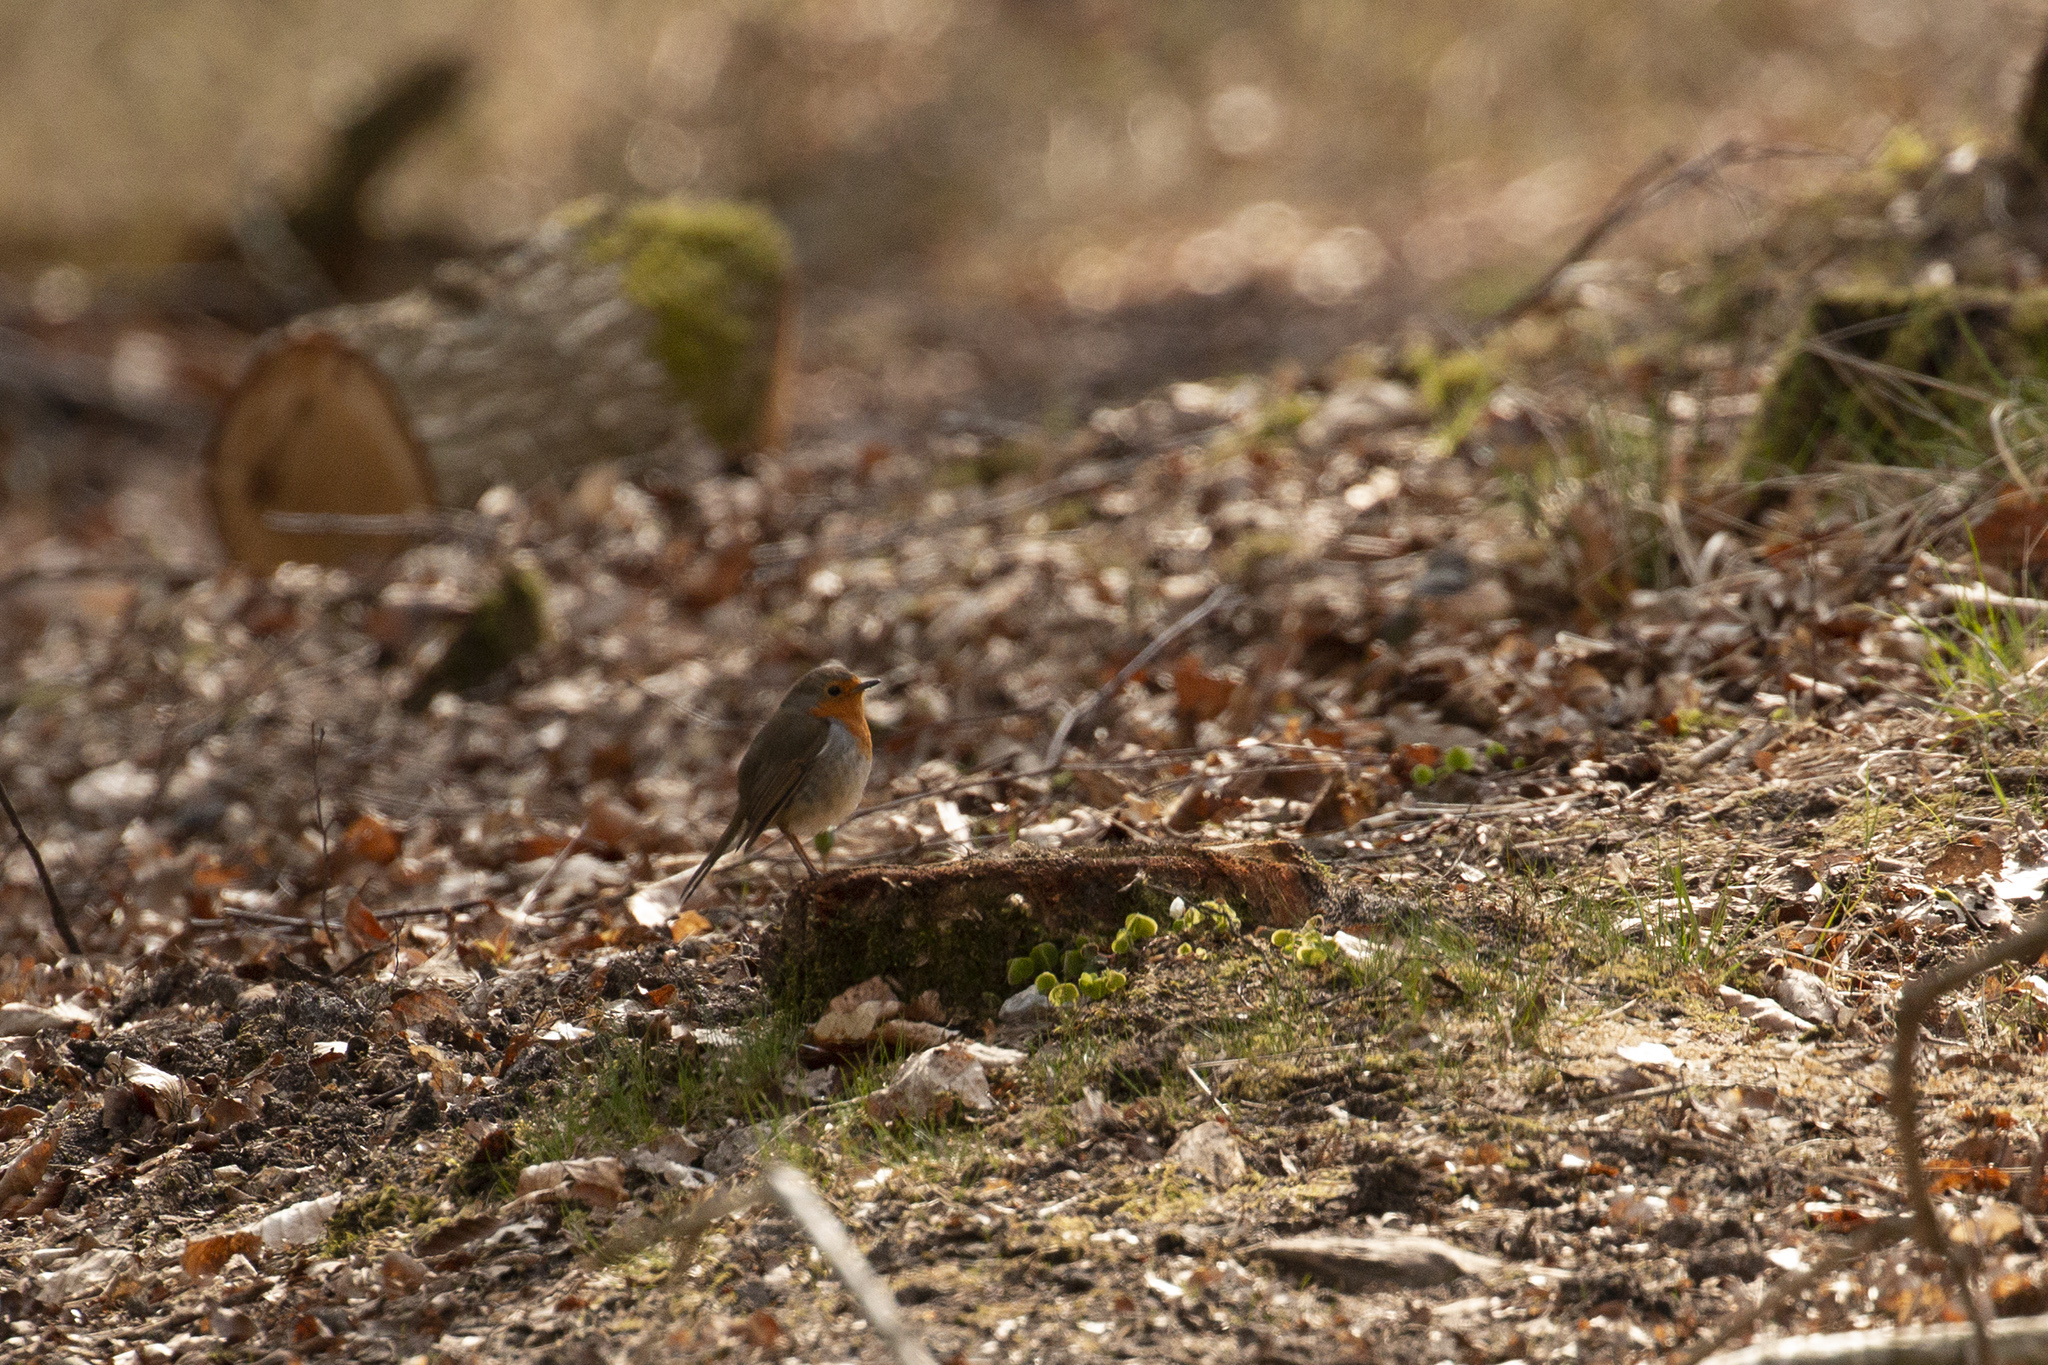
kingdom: Animalia
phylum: Chordata
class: Aves
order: Passeriformes
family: Muscicapidae
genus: Erithacus
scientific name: Erithacus rubecula
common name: European robin
